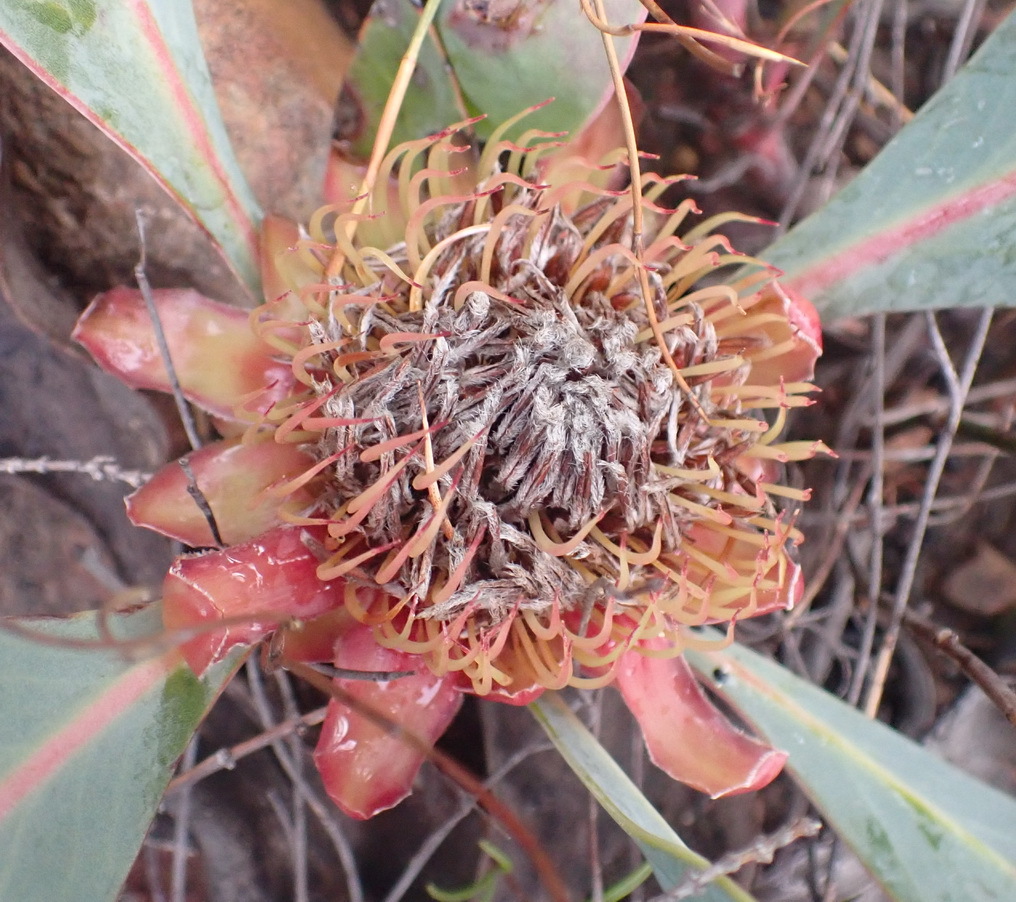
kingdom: Plantae
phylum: Tracheophyta
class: Magnoliopsida
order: Proteales
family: Proteaceae
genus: Protea
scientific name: Protea acaulos
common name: Common ground sugarbush
